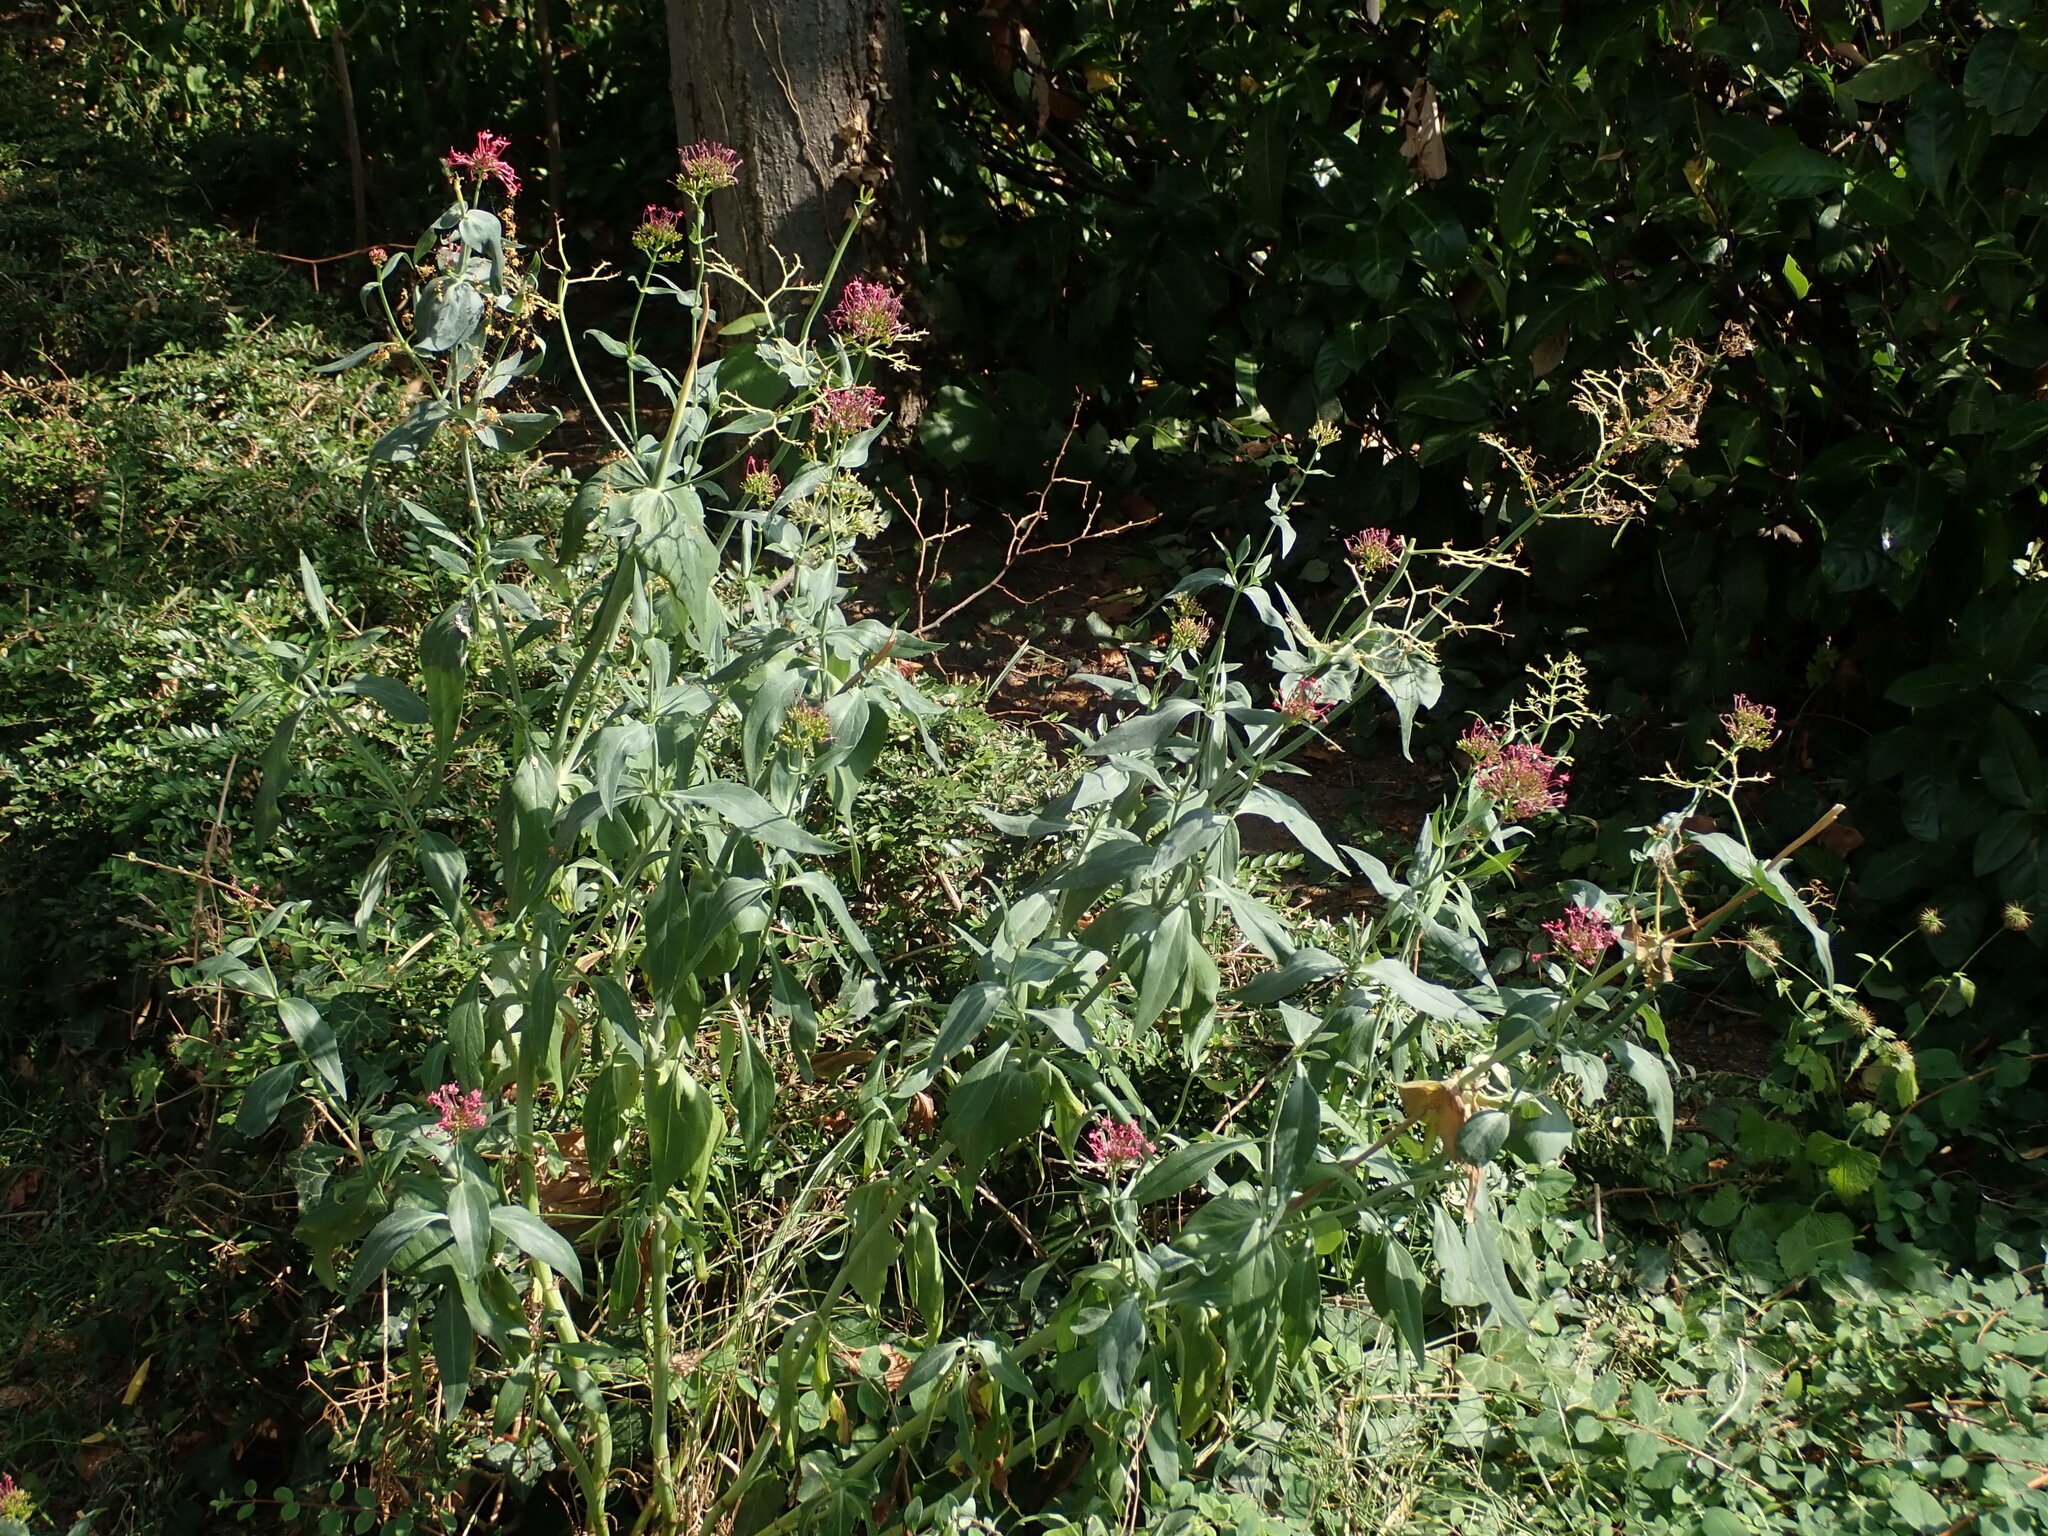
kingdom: Plantae
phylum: Tracheophyta
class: Magnoliopsida
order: Dipsacales
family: Caprifoliaceae
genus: Centranthus
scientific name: Centranthus ruber
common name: Red valerian
